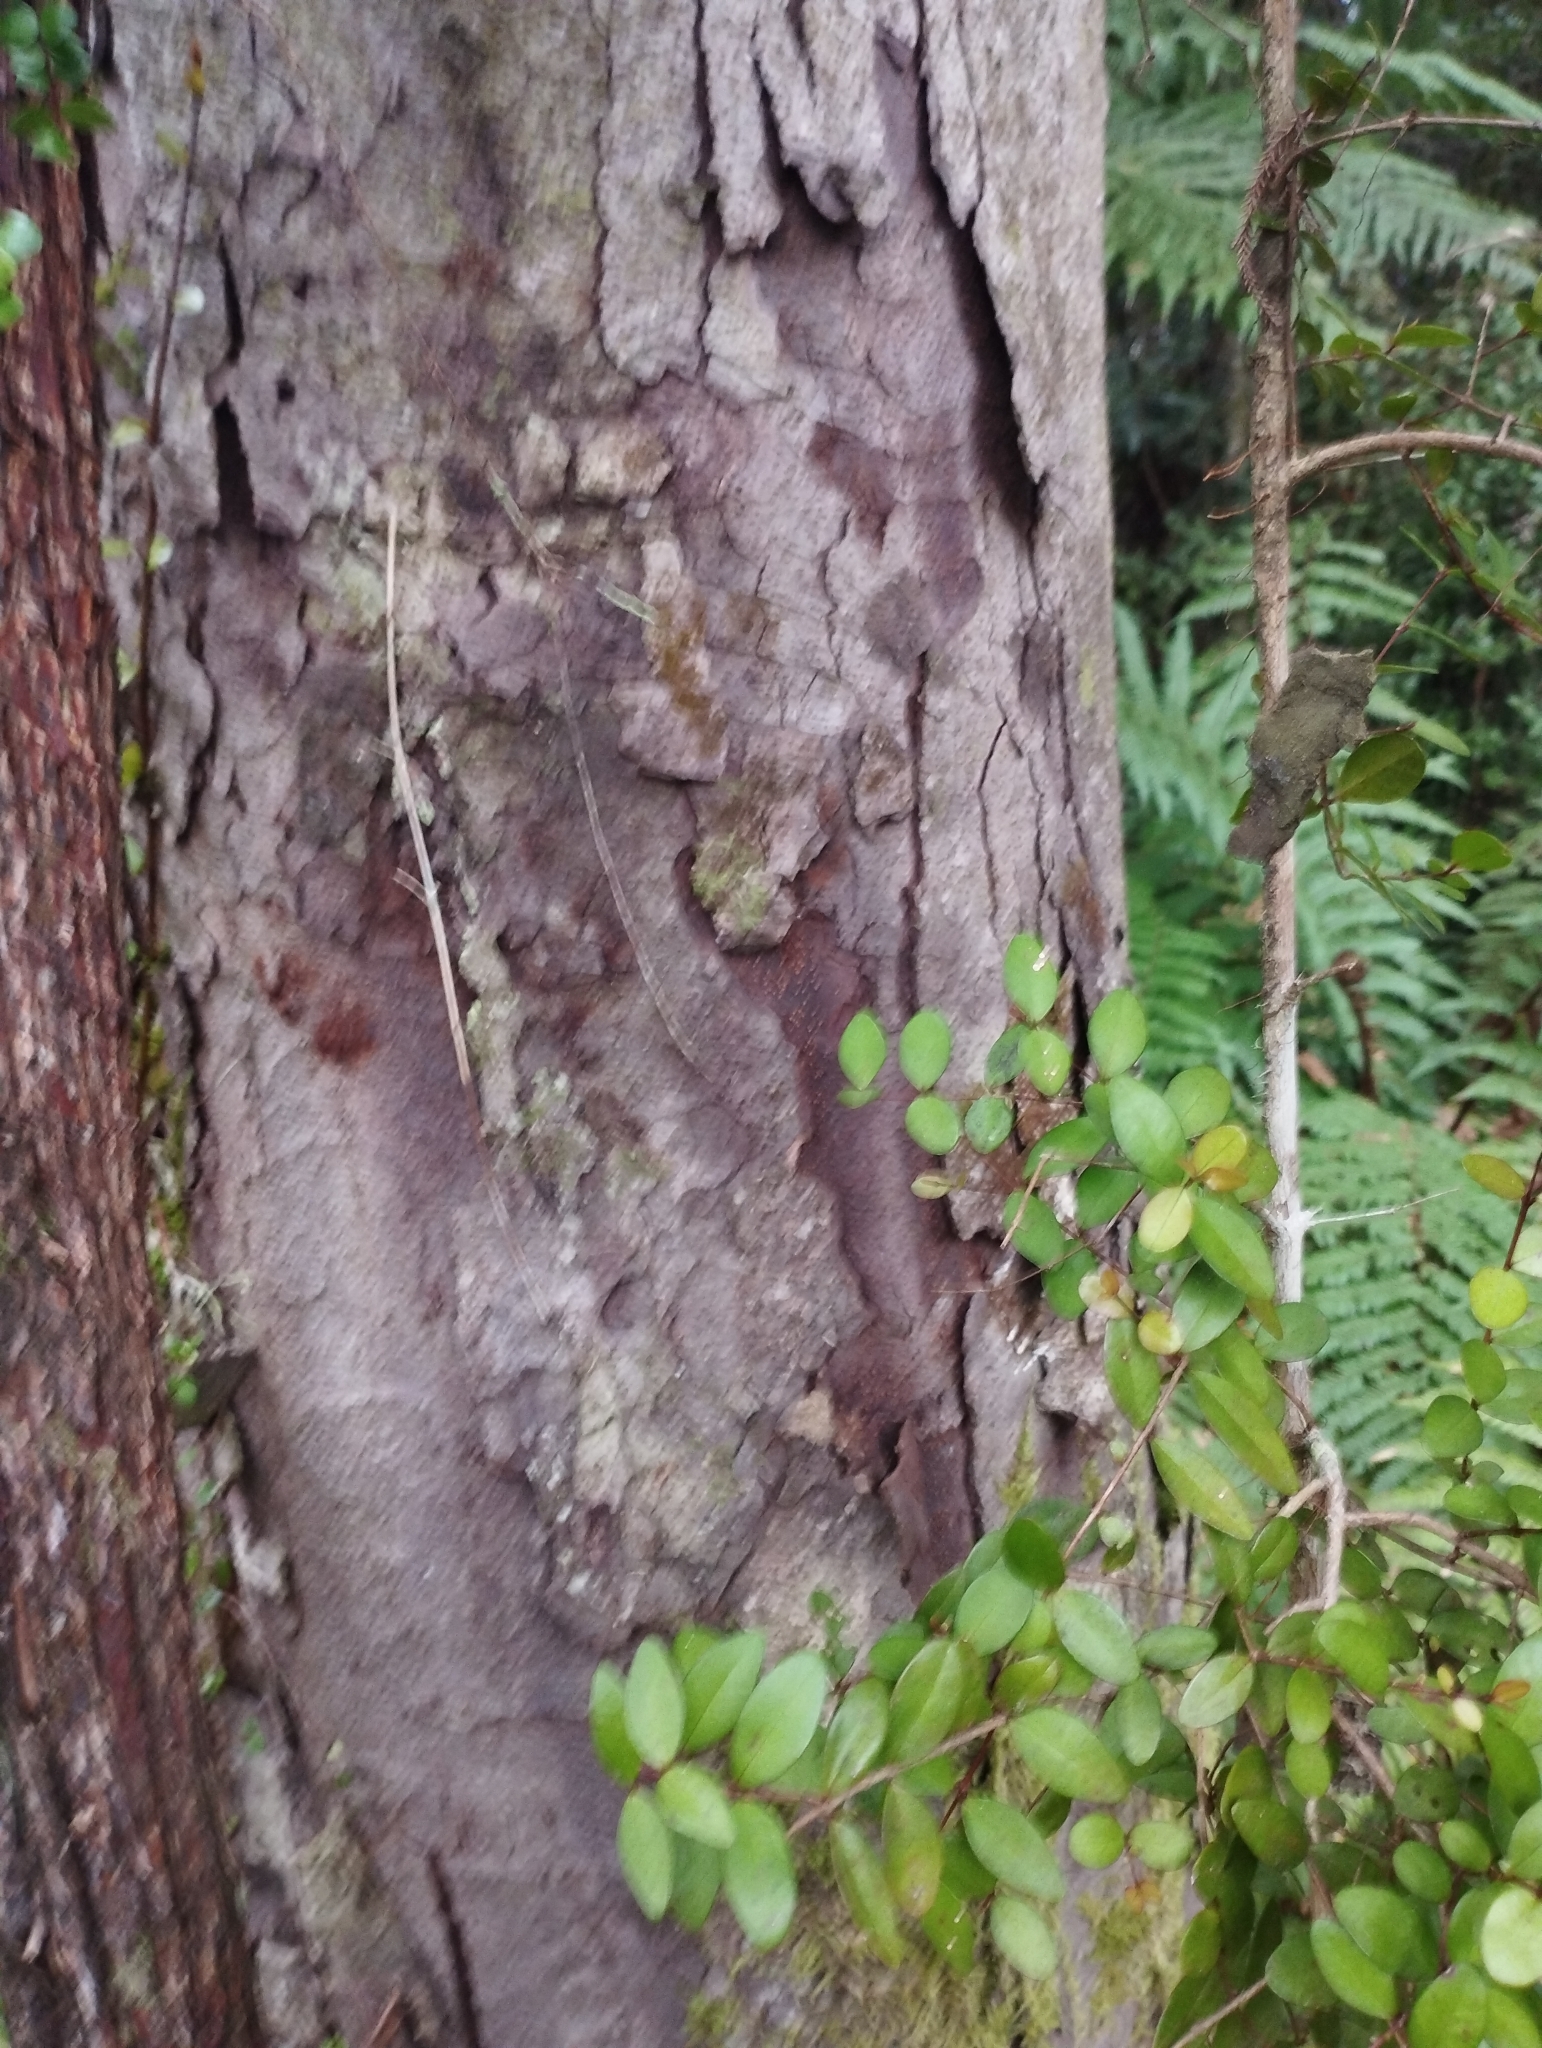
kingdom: Plantae
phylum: Tracheophyta
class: Pinopsida
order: Pinales
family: Podocarpaceae
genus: Dacrydium
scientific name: Dacrydium cupressinum
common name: Red pine
